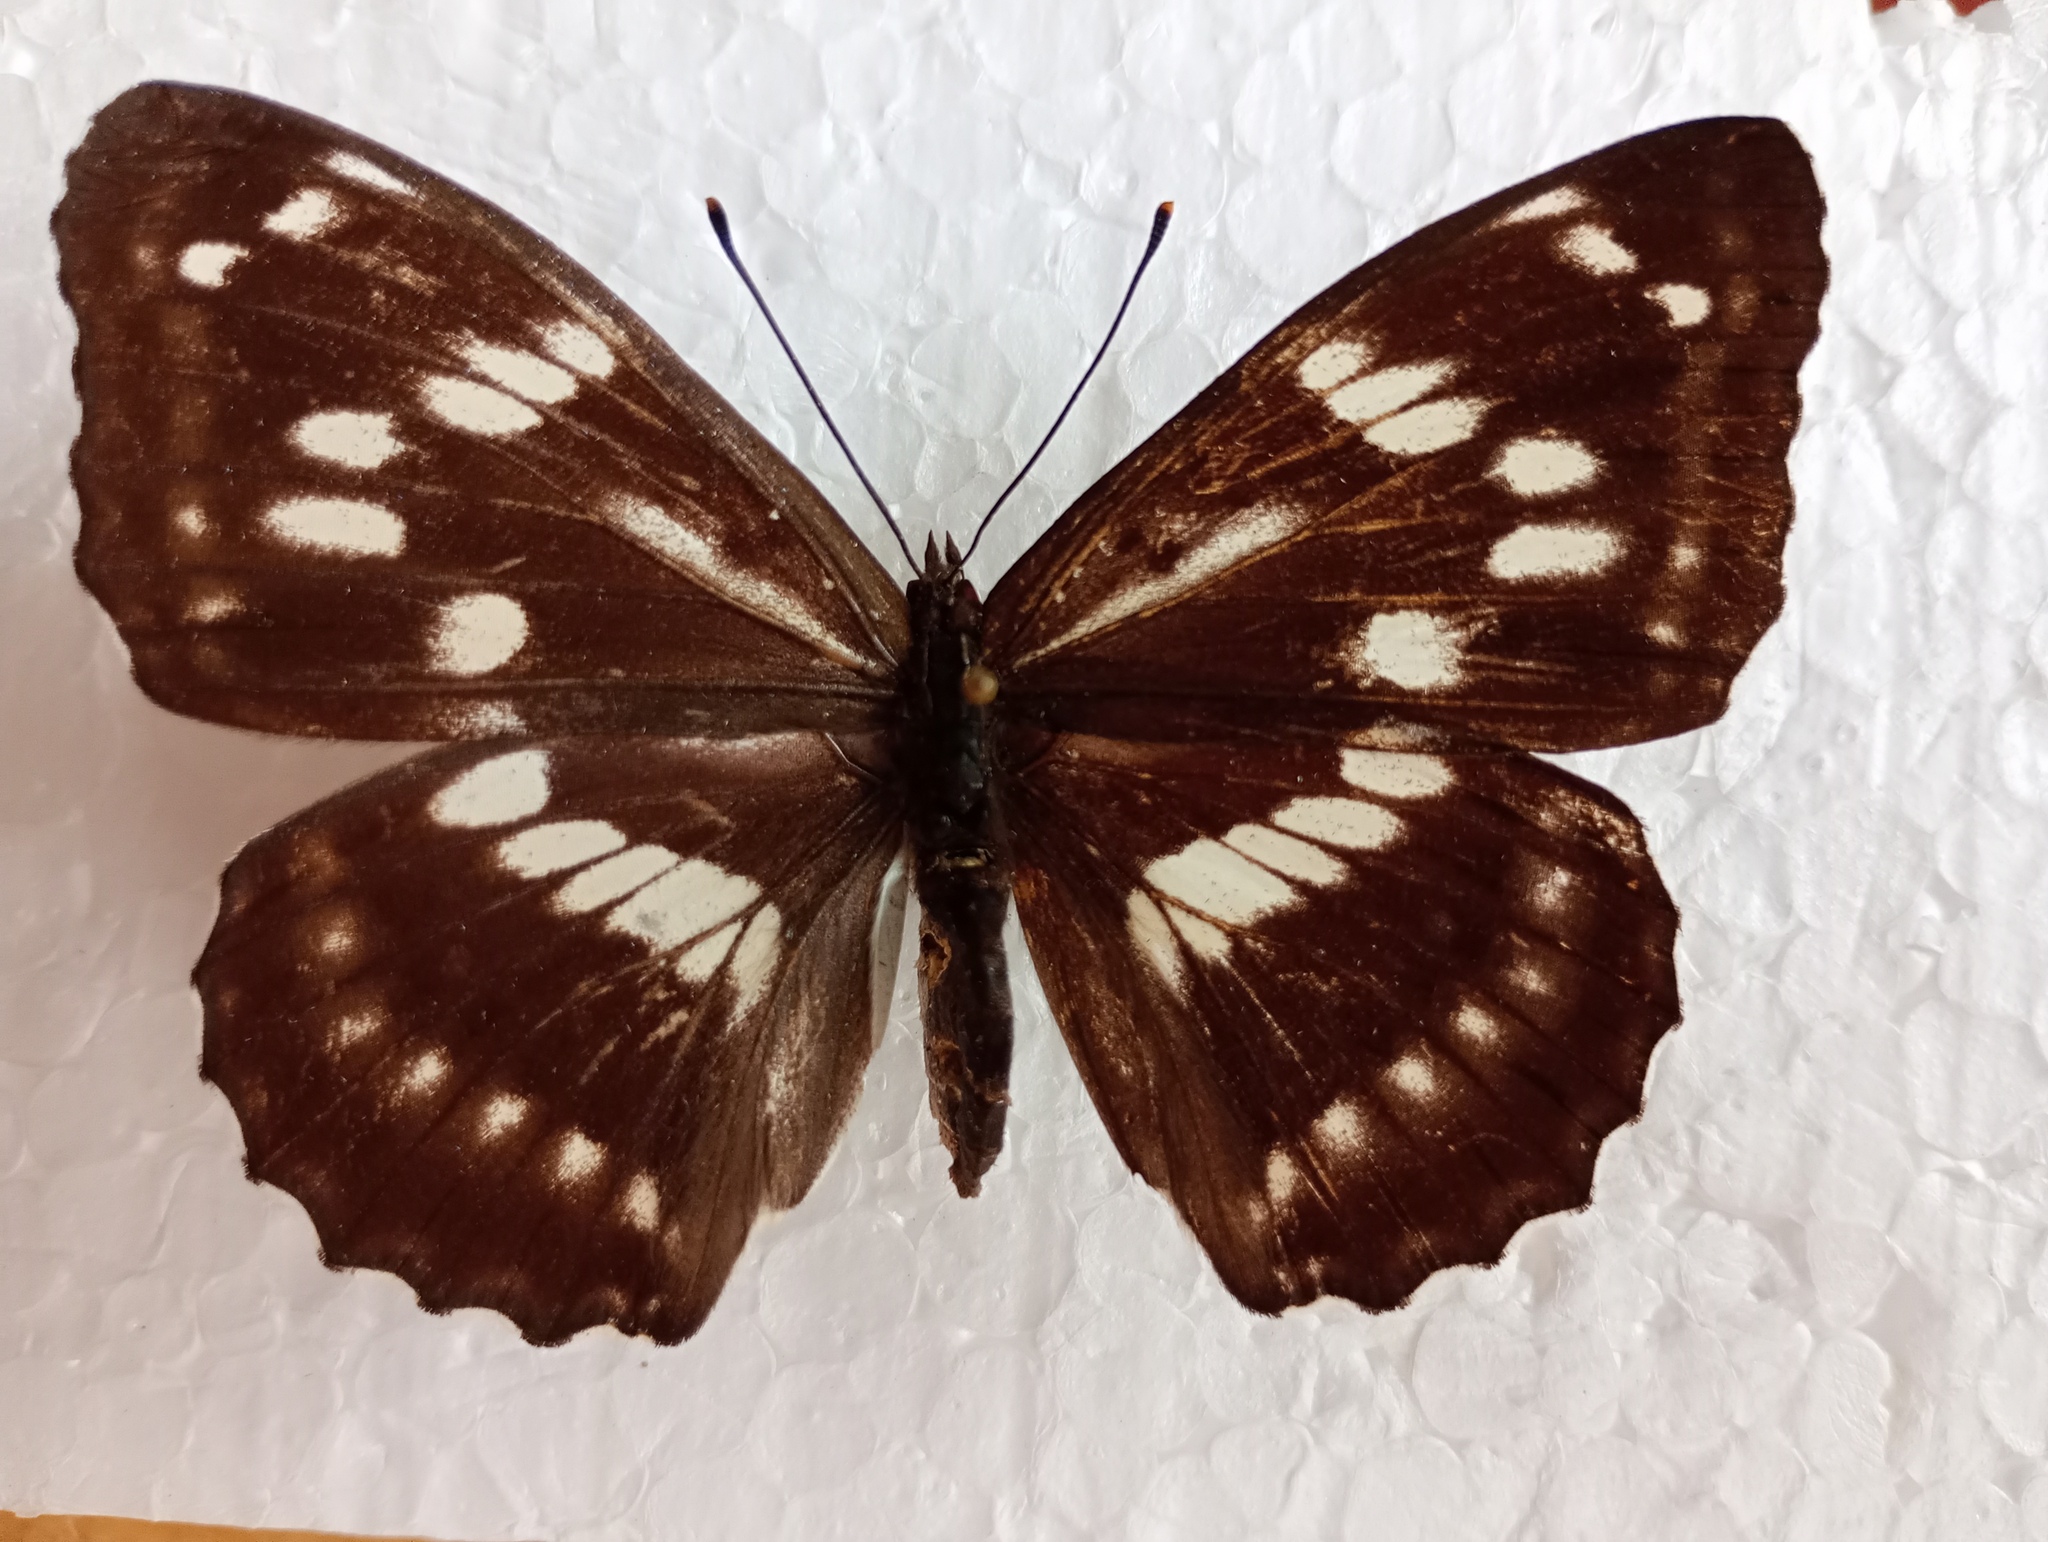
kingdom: Animalia
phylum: Arthropoda
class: Insecta
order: Lepidoptera
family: Nymphalidae
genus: Apatura
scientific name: Apatura nycteis
